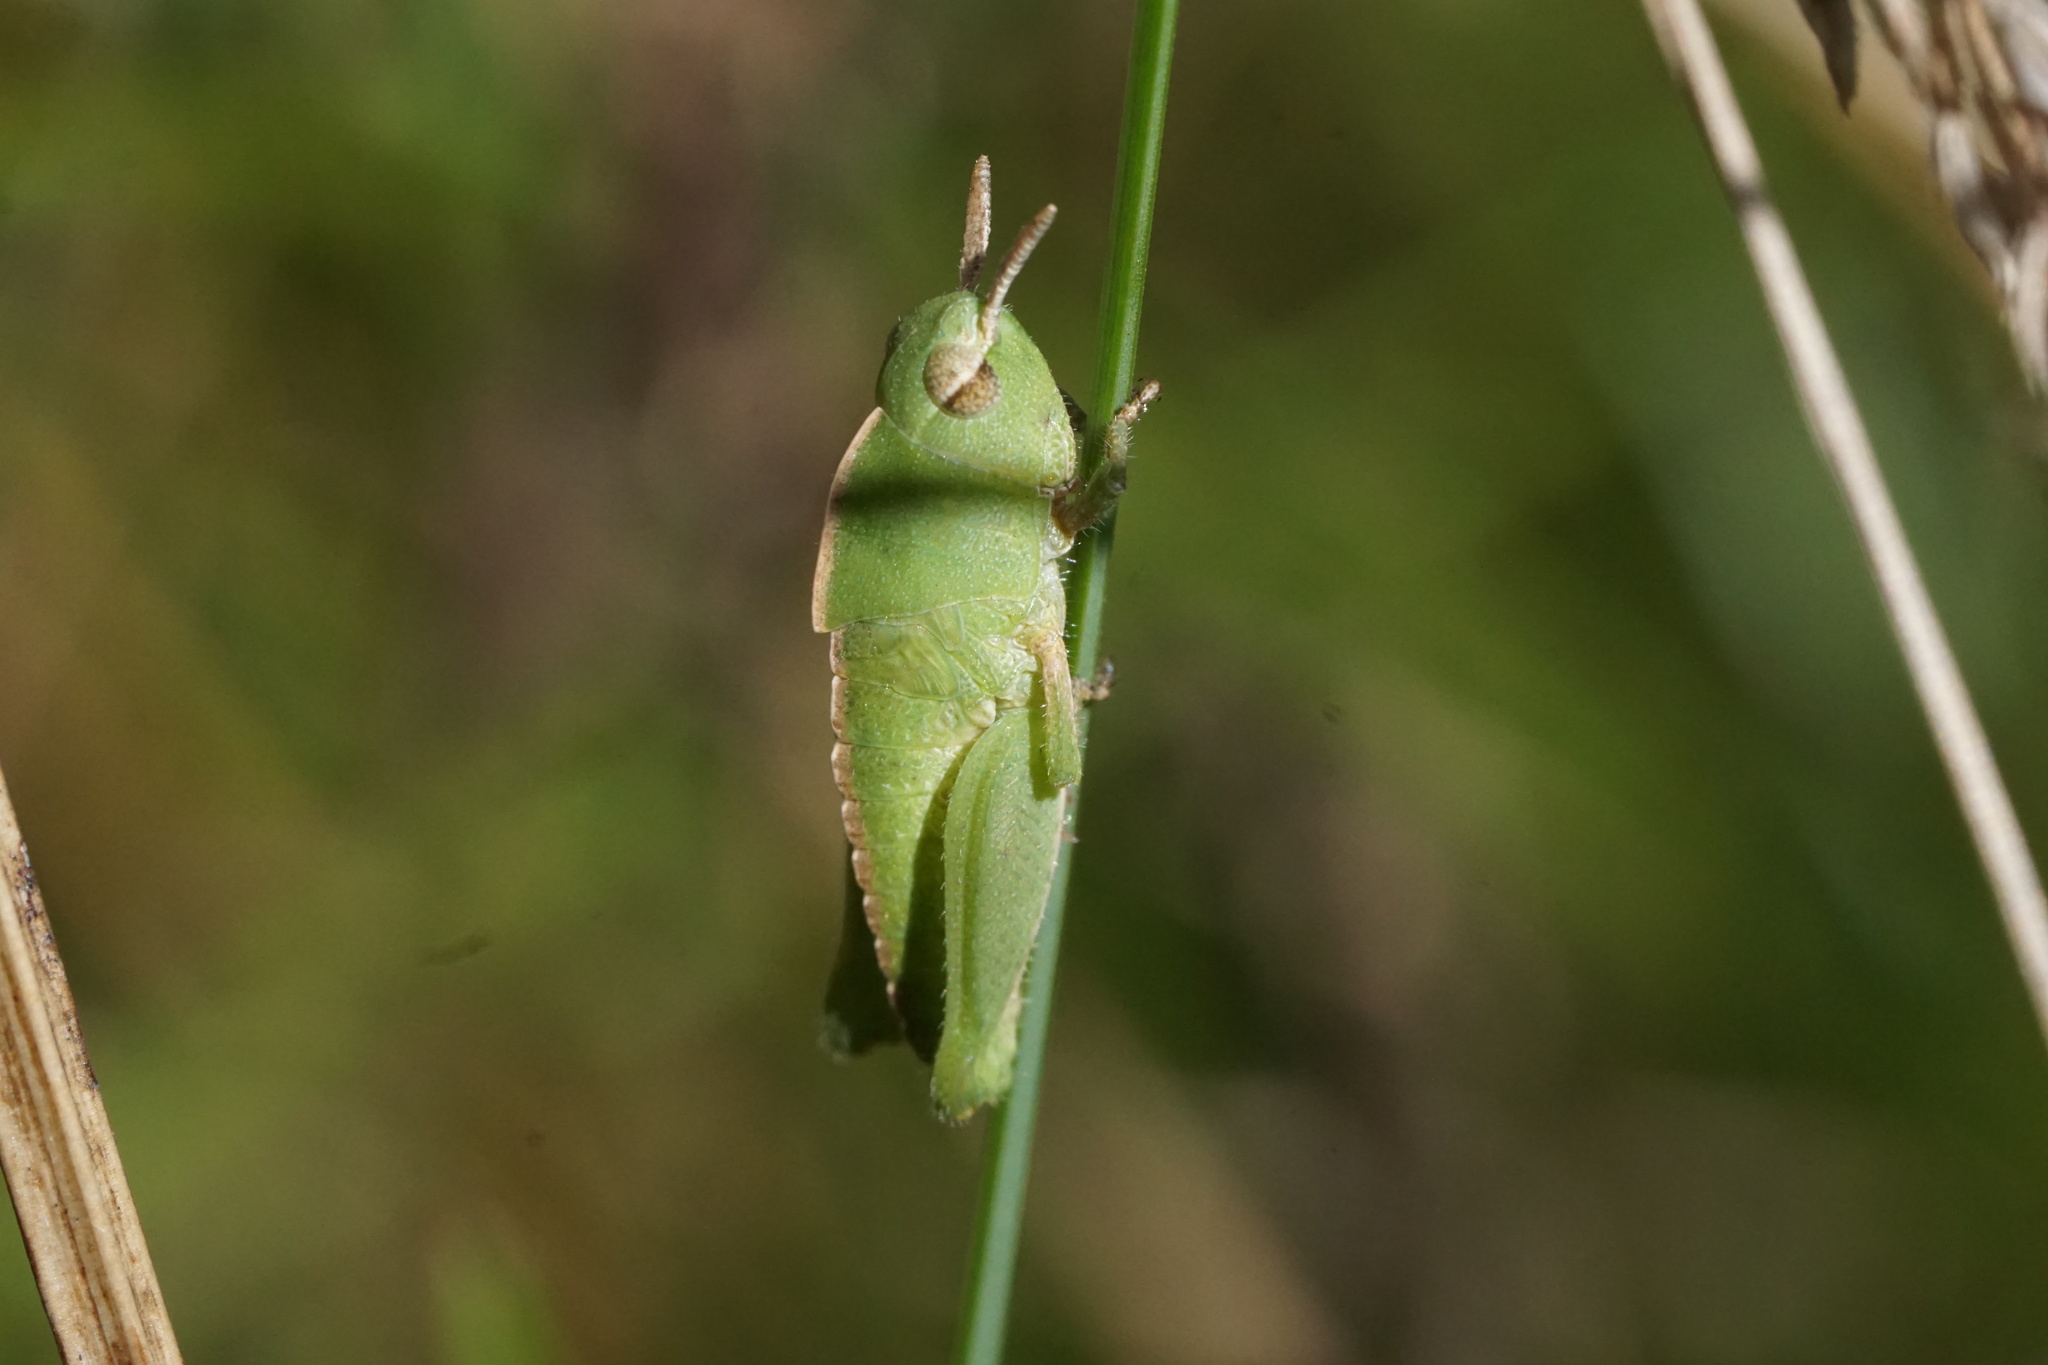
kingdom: Animalia
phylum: Arthropoda
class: Insecta
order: Orthoptera
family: Acrididae
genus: Chortophaga
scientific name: Chortophaga viridifasciata
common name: Green-striped grasshopper
